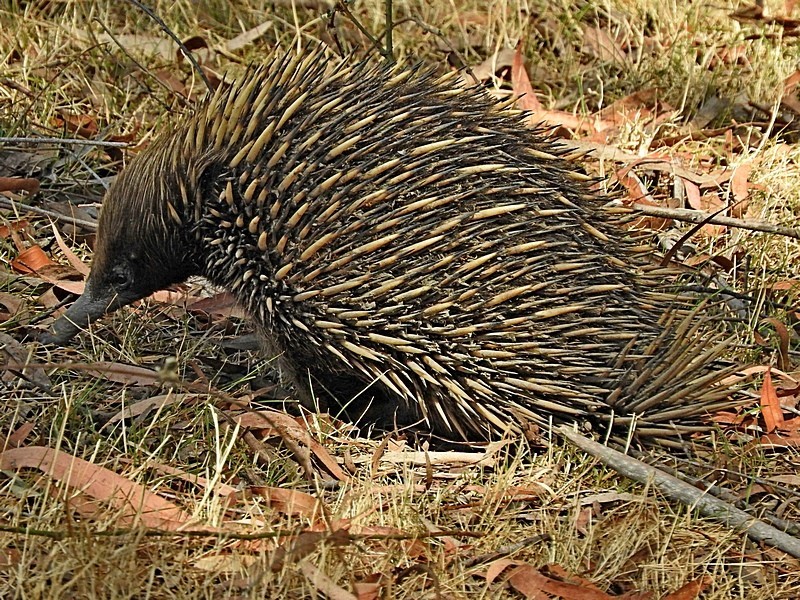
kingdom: Animalia
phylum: Chordata
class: Mammalia
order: Monotremata
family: Tachyglossidae
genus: Tachyglossus
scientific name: Tachyglossus aculeatus
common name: Short-beaked echidna
